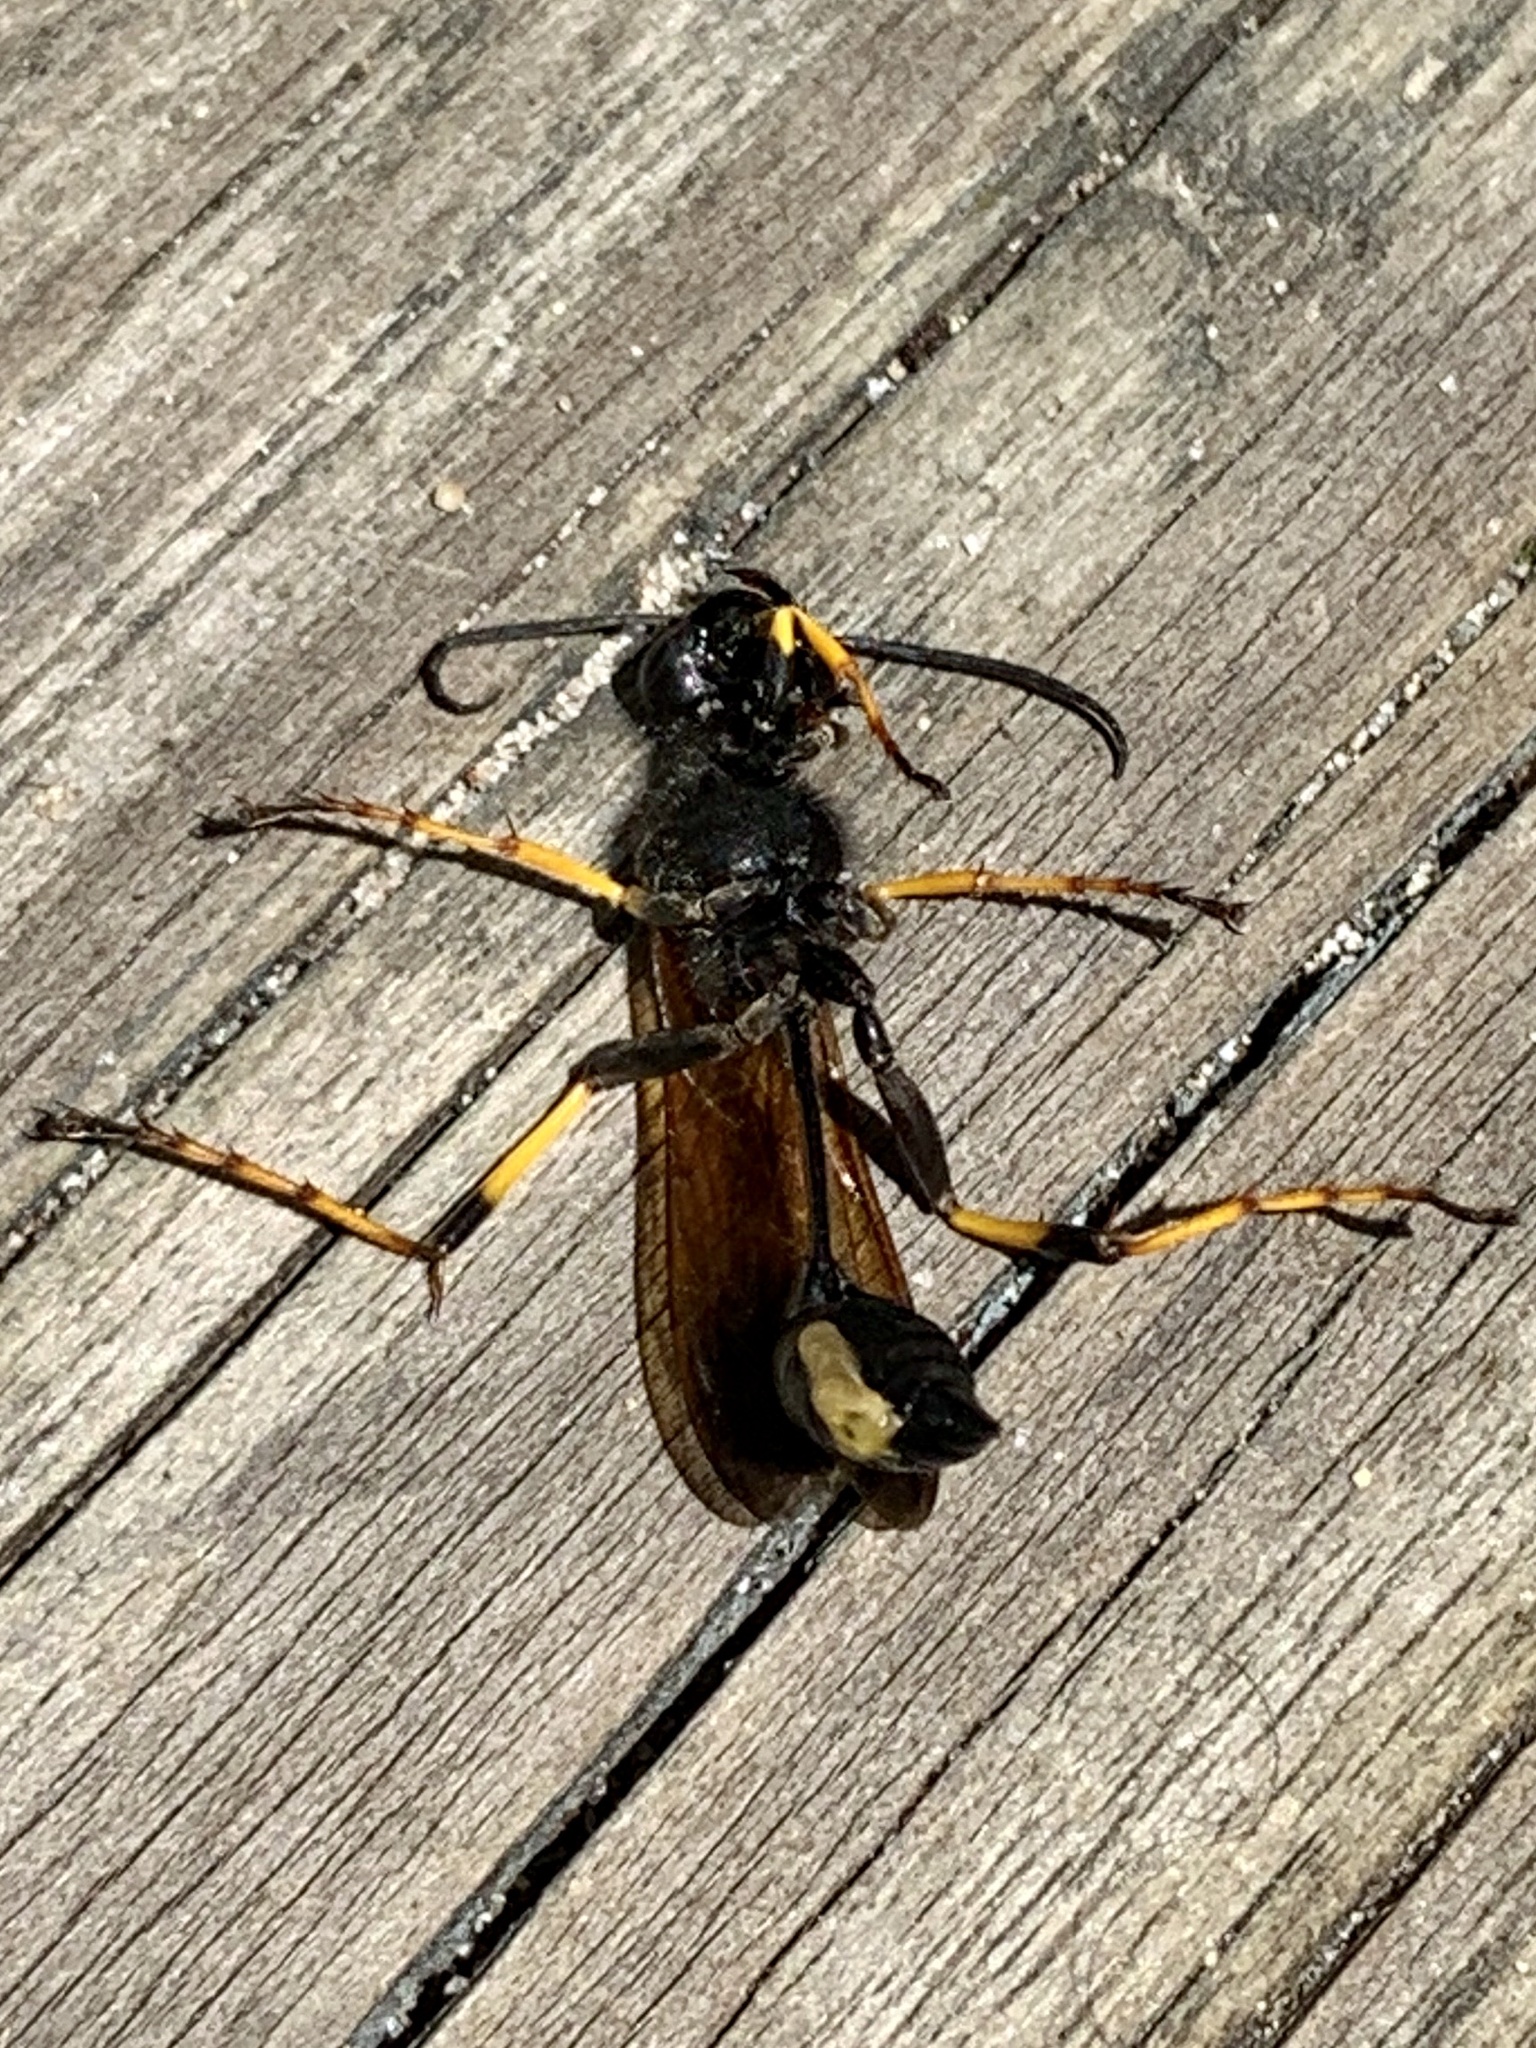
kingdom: Animalia
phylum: Arthropoda
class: Insecta
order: Hymenoptera
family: Sphecidae
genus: Sceliphron
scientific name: Sceliphron caementarium
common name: Mud dauber
